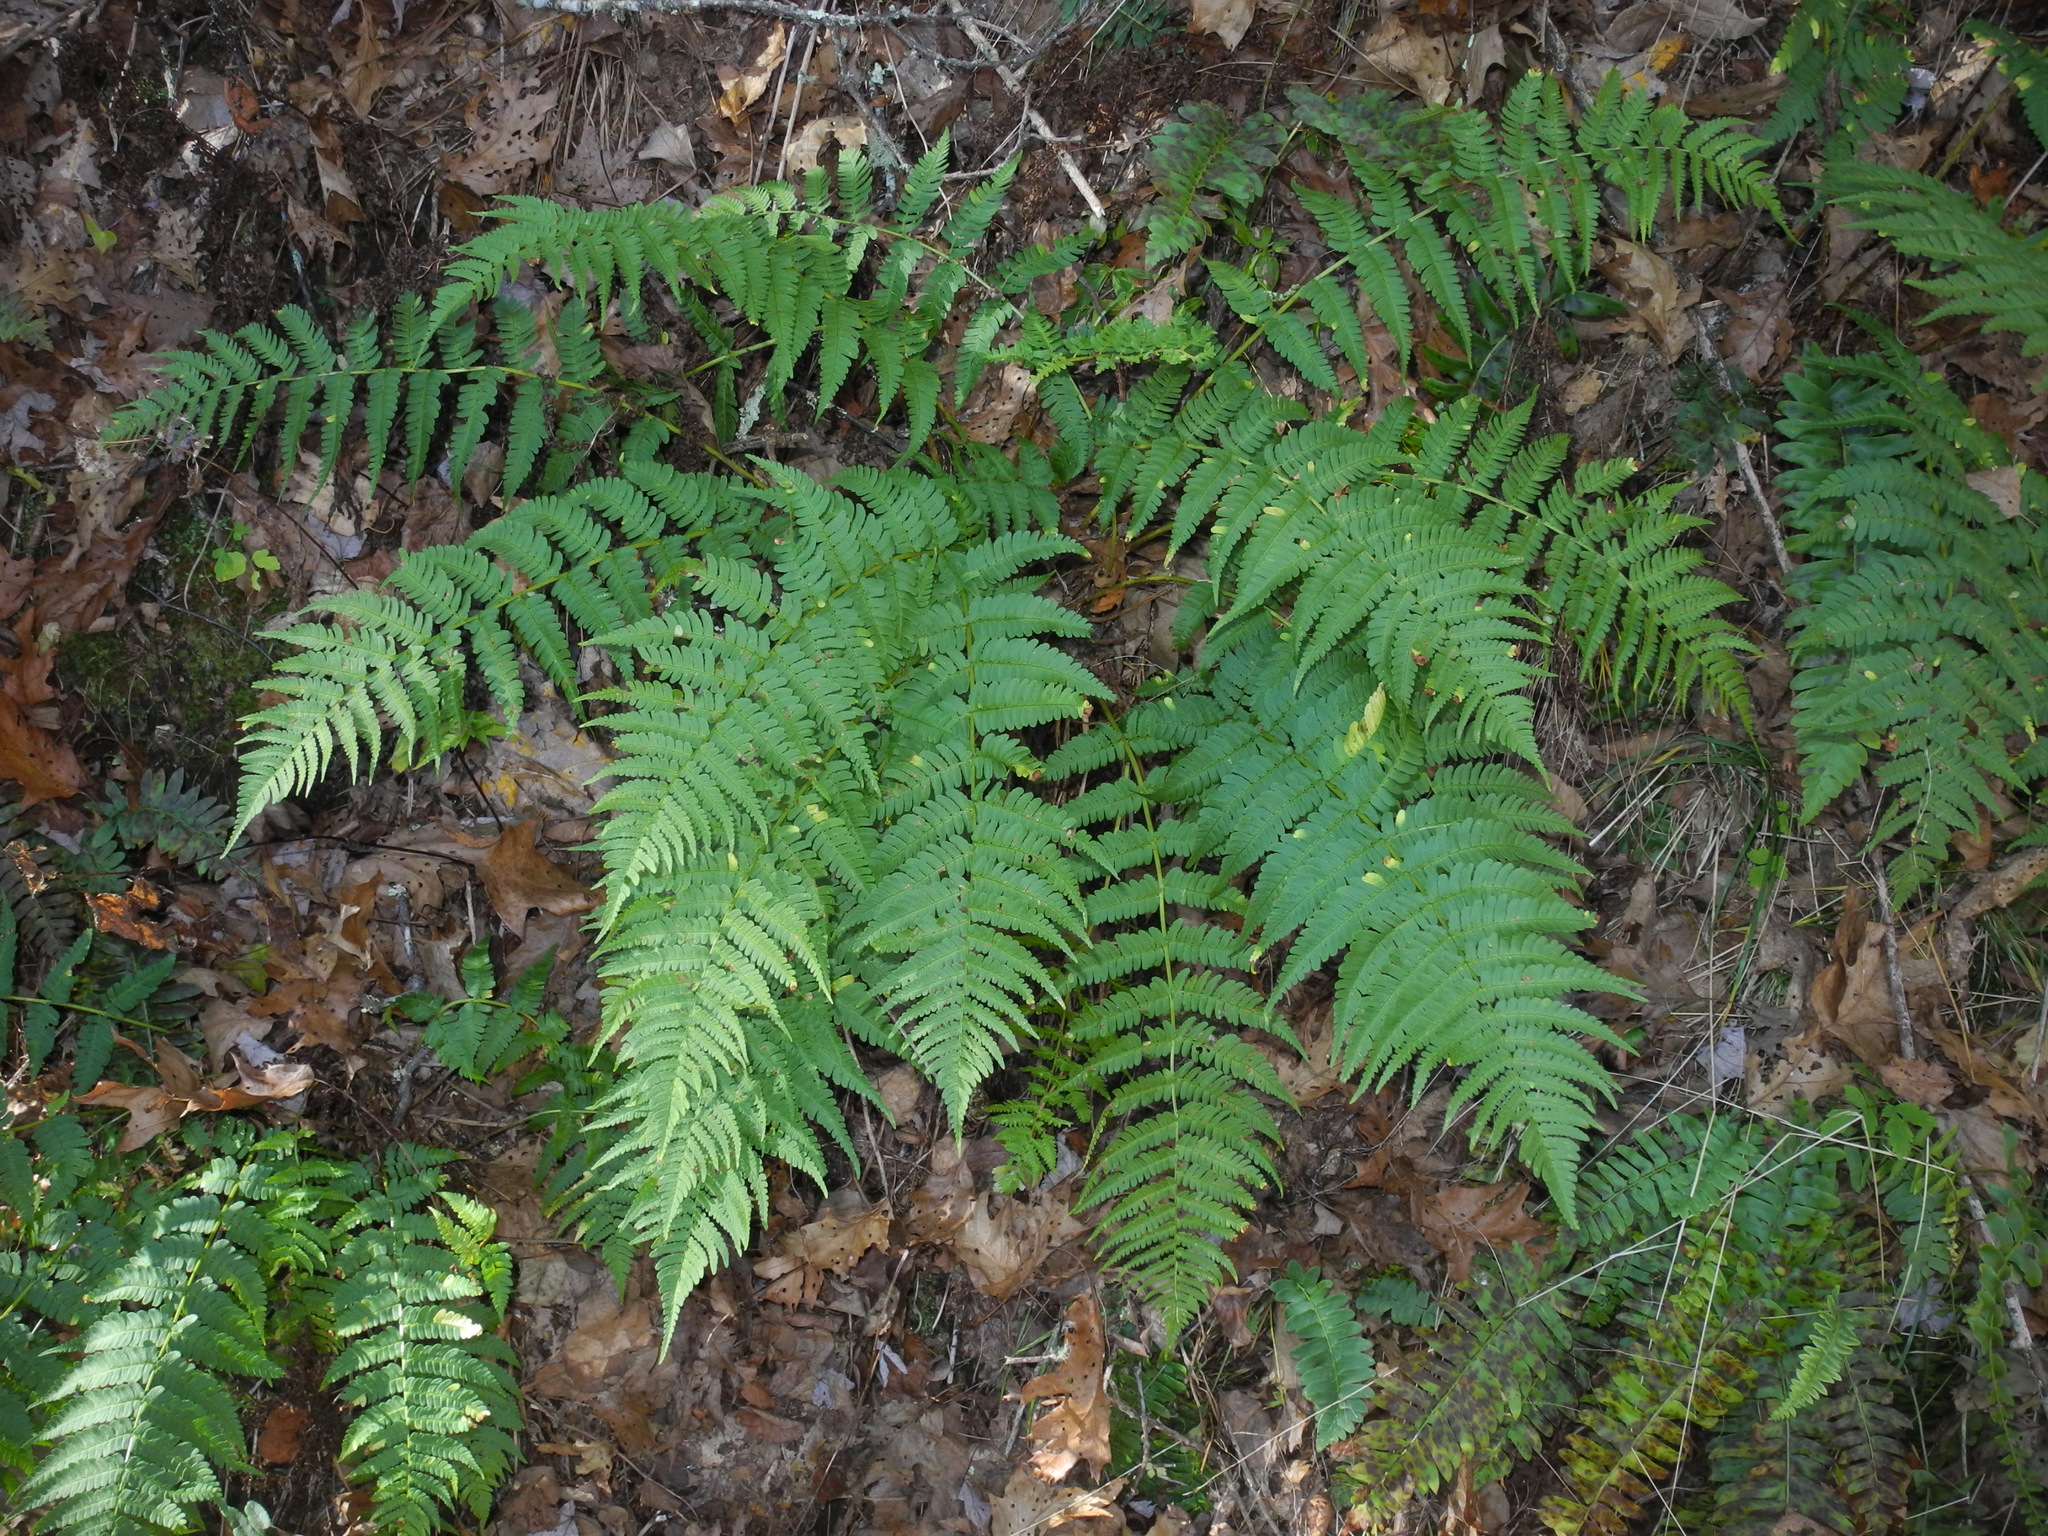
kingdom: Plantae
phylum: Tracheophyta
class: Polypodiopsida
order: Polypodiales
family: Dryopteridaceae
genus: Dryopteris
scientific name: Dryopteris marginalis
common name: Marginal wood fern
